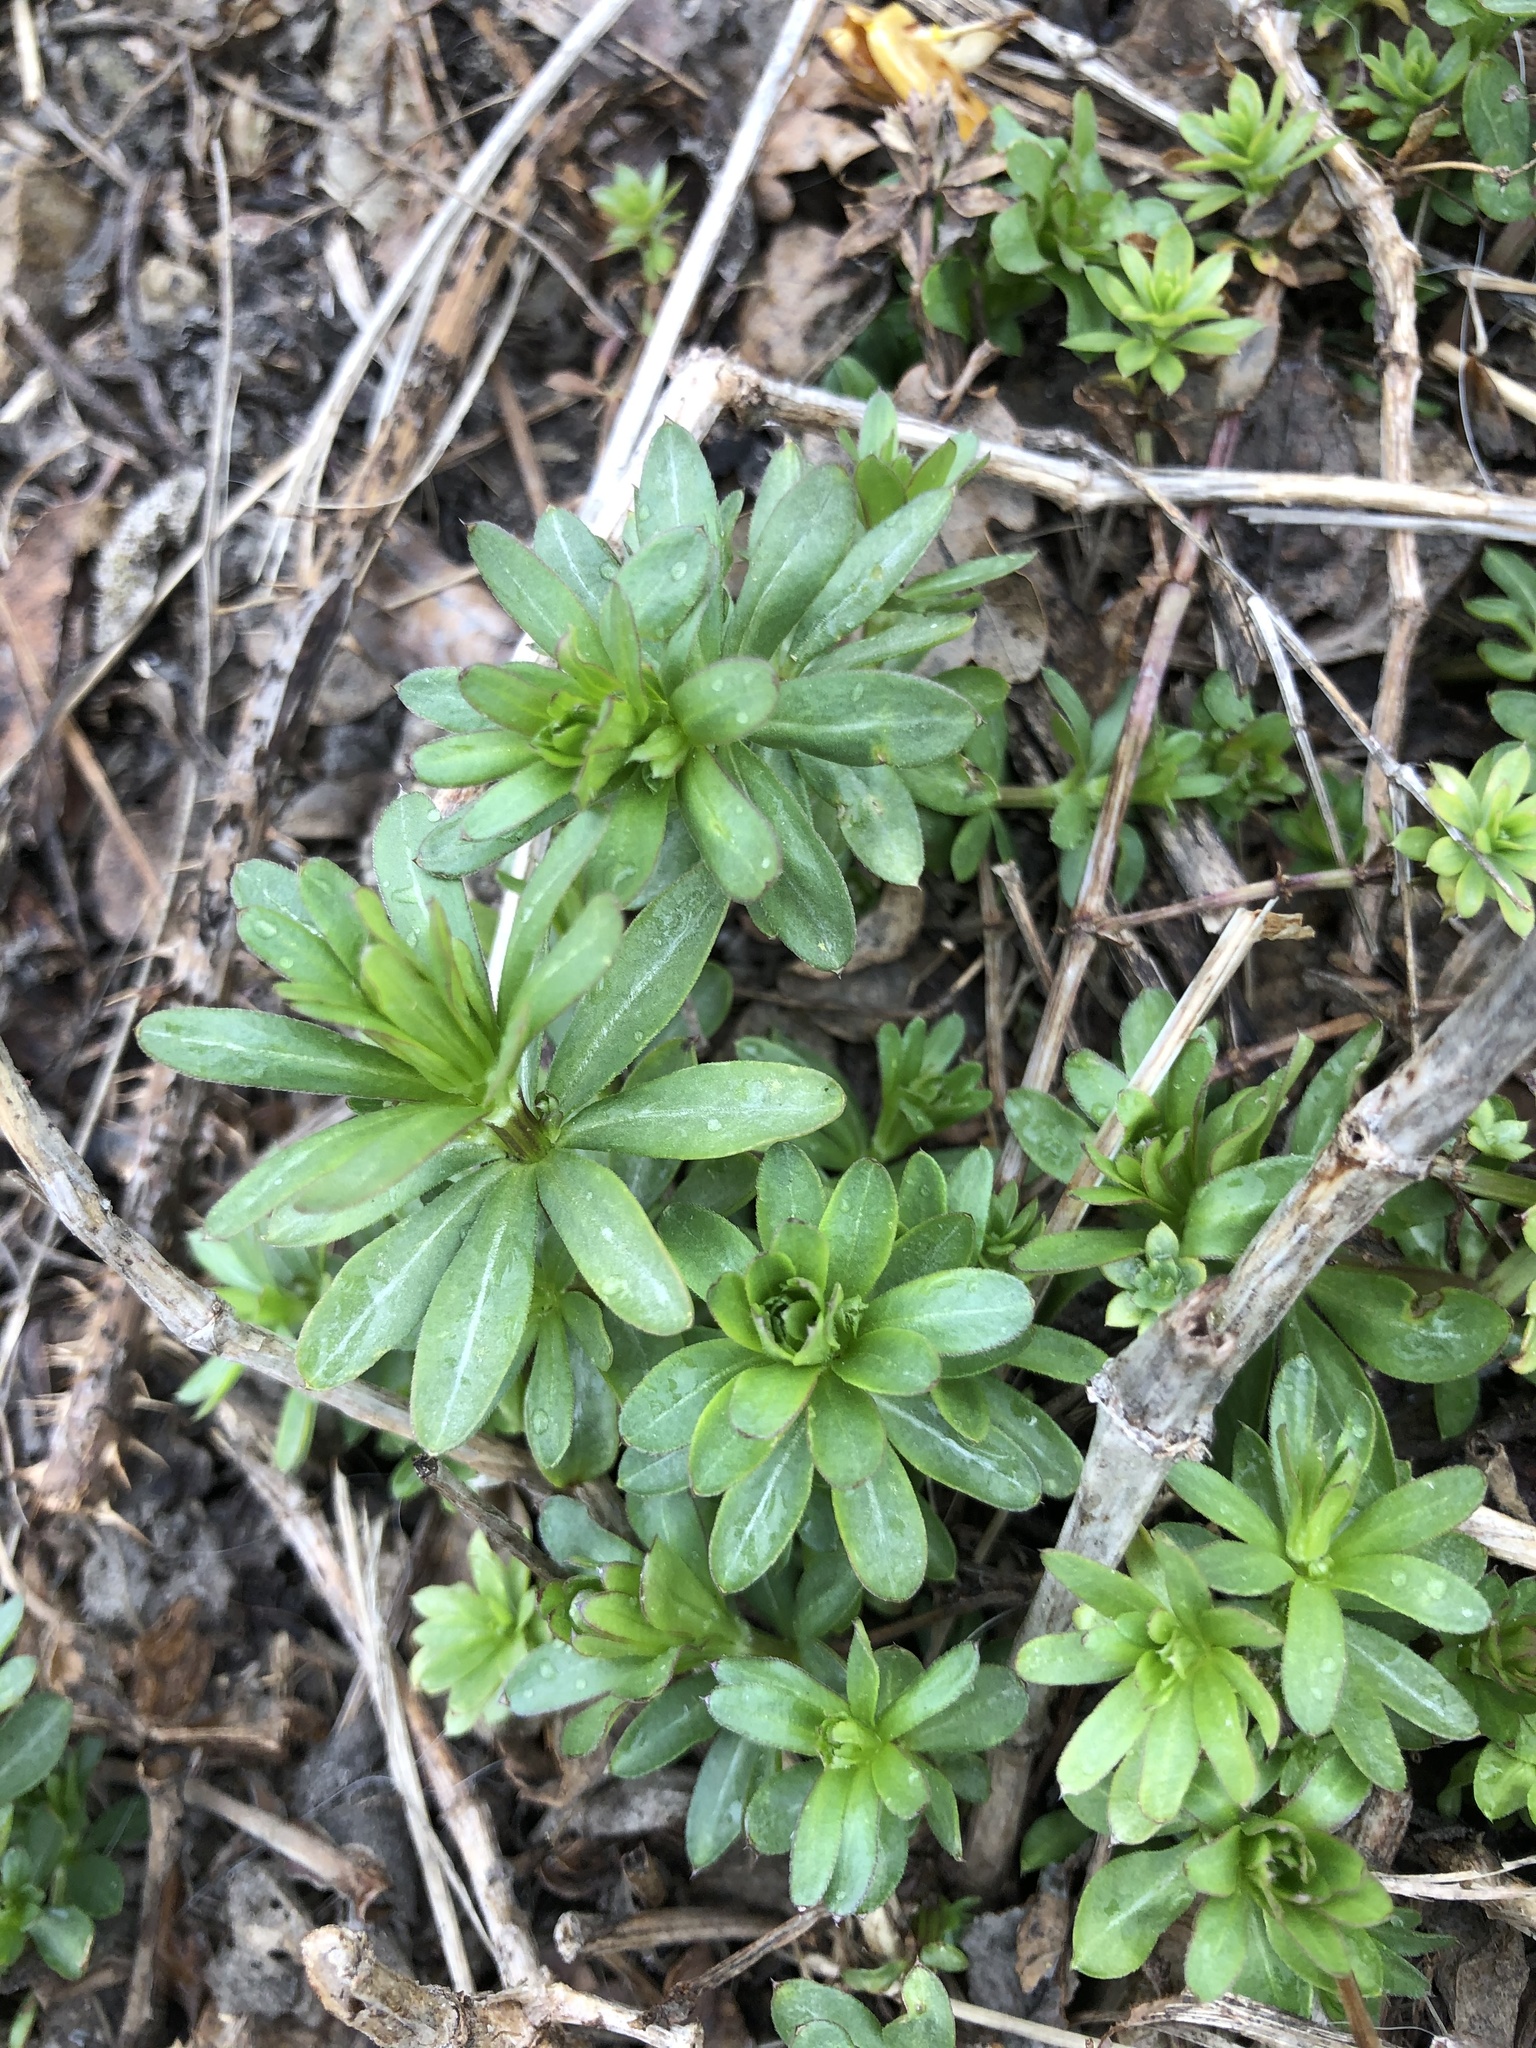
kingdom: Plantae
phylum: Tracheophyta
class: Magnoliopsida
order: Gentianales
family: Rubiaceae
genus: Galium
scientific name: Galium mollugo
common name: Hedge bedstraw
